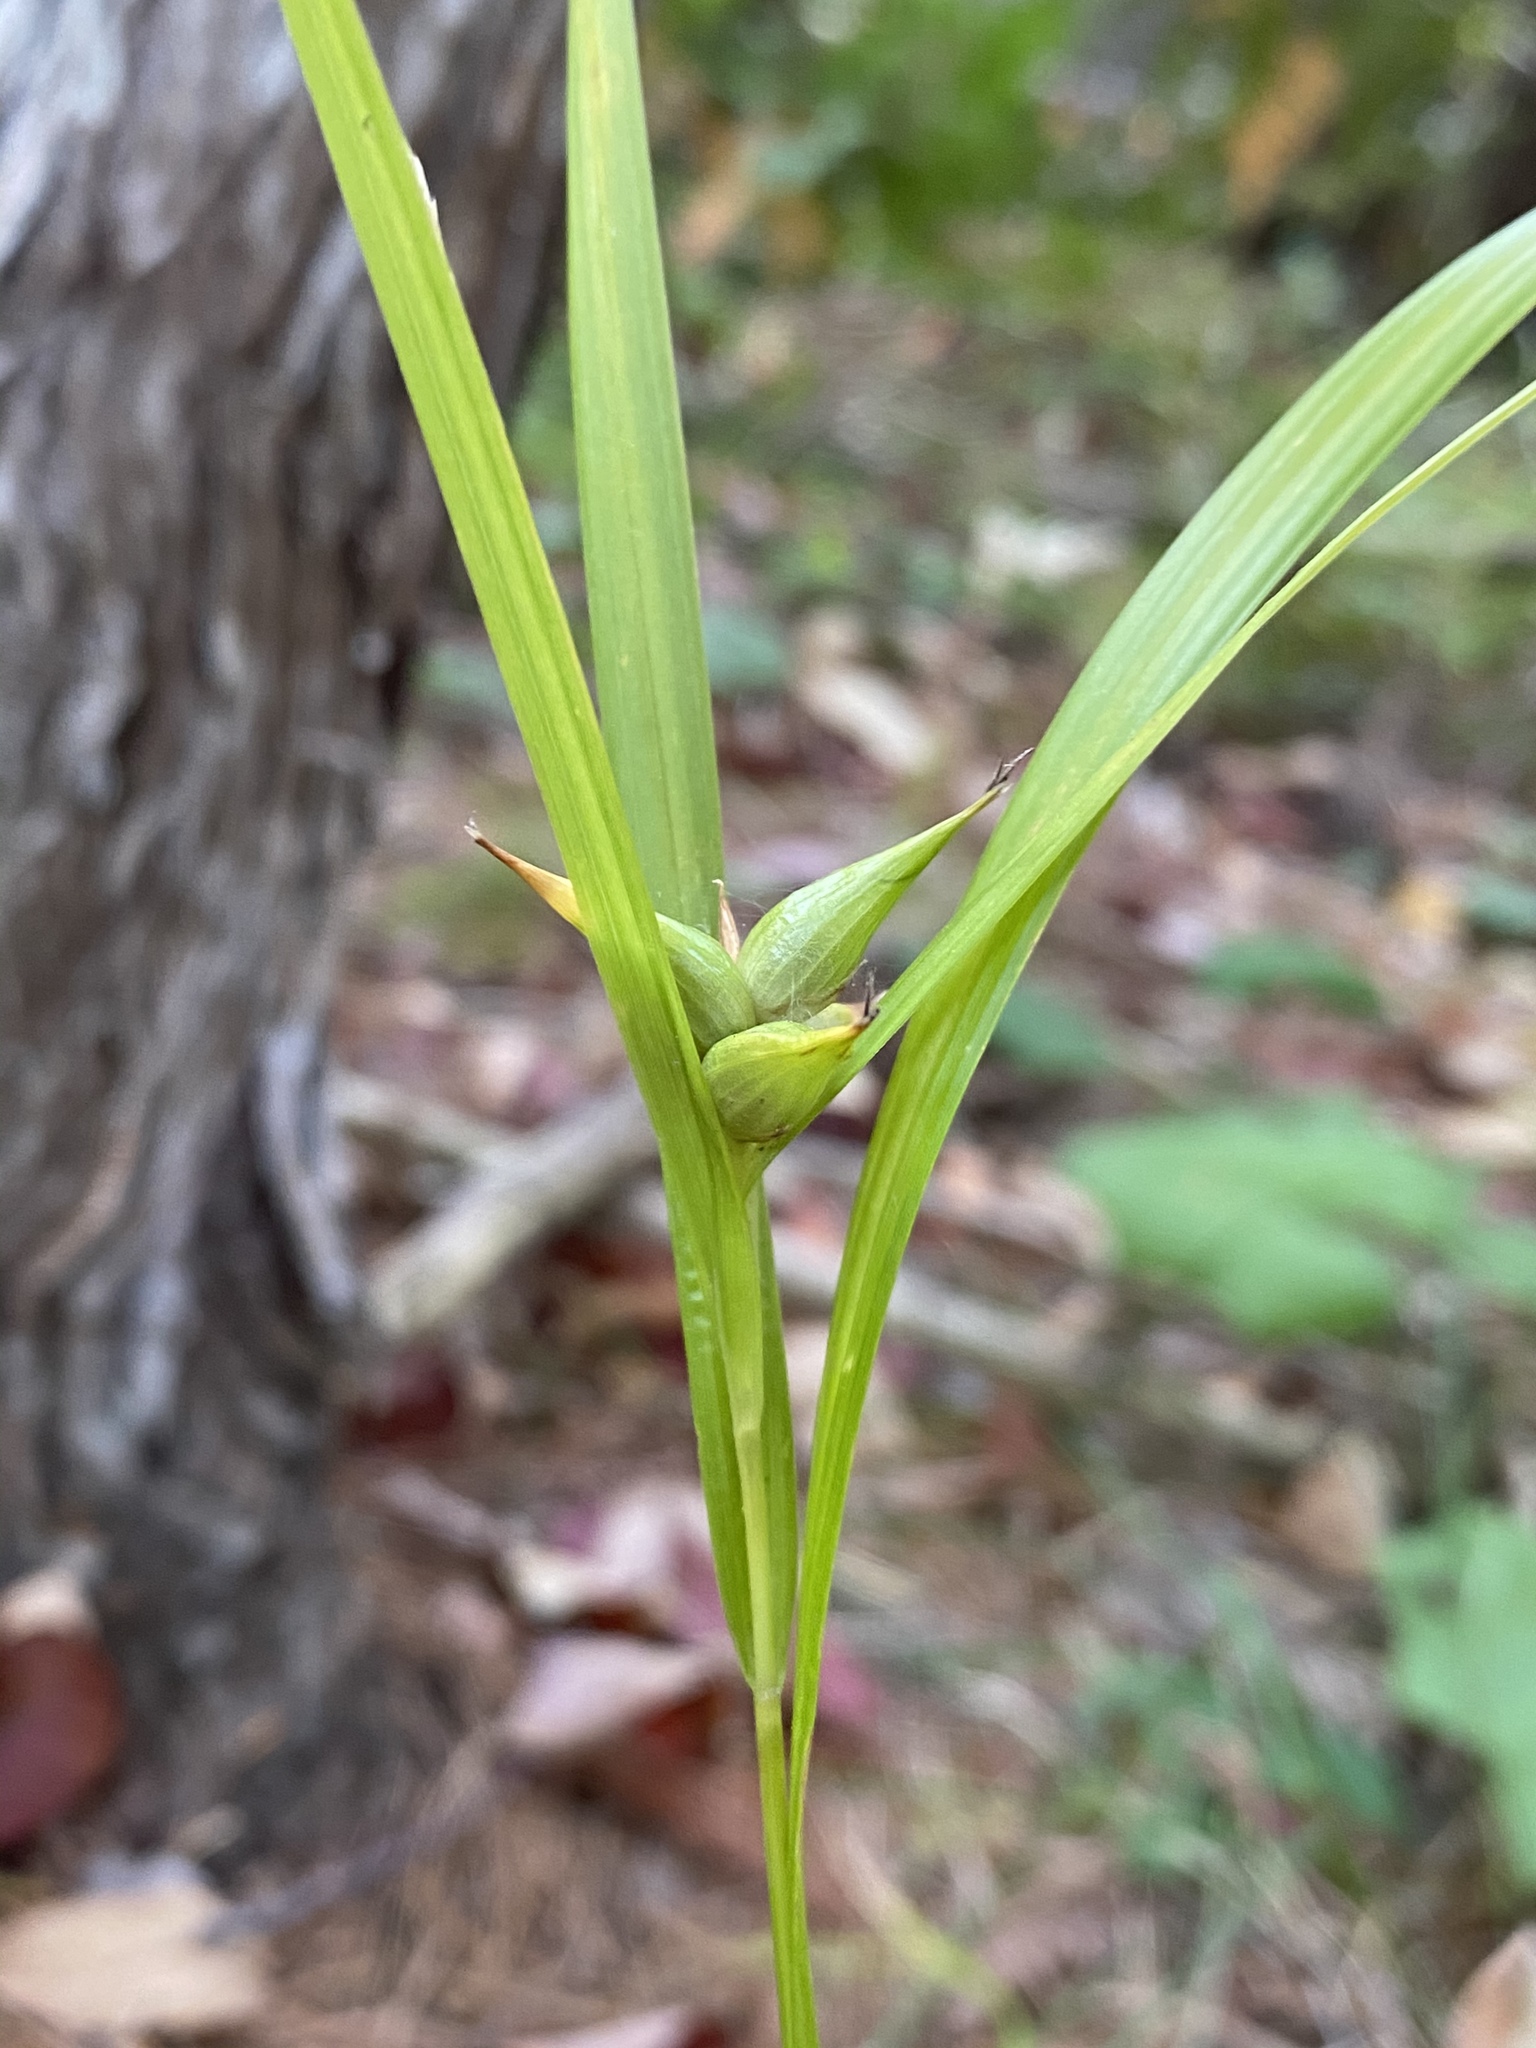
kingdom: Plantae
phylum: Tracheophyta
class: Liliopsida
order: Poales
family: Cyperaceae
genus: Carex
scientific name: Carex intumescens
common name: Greater bladder sedge
